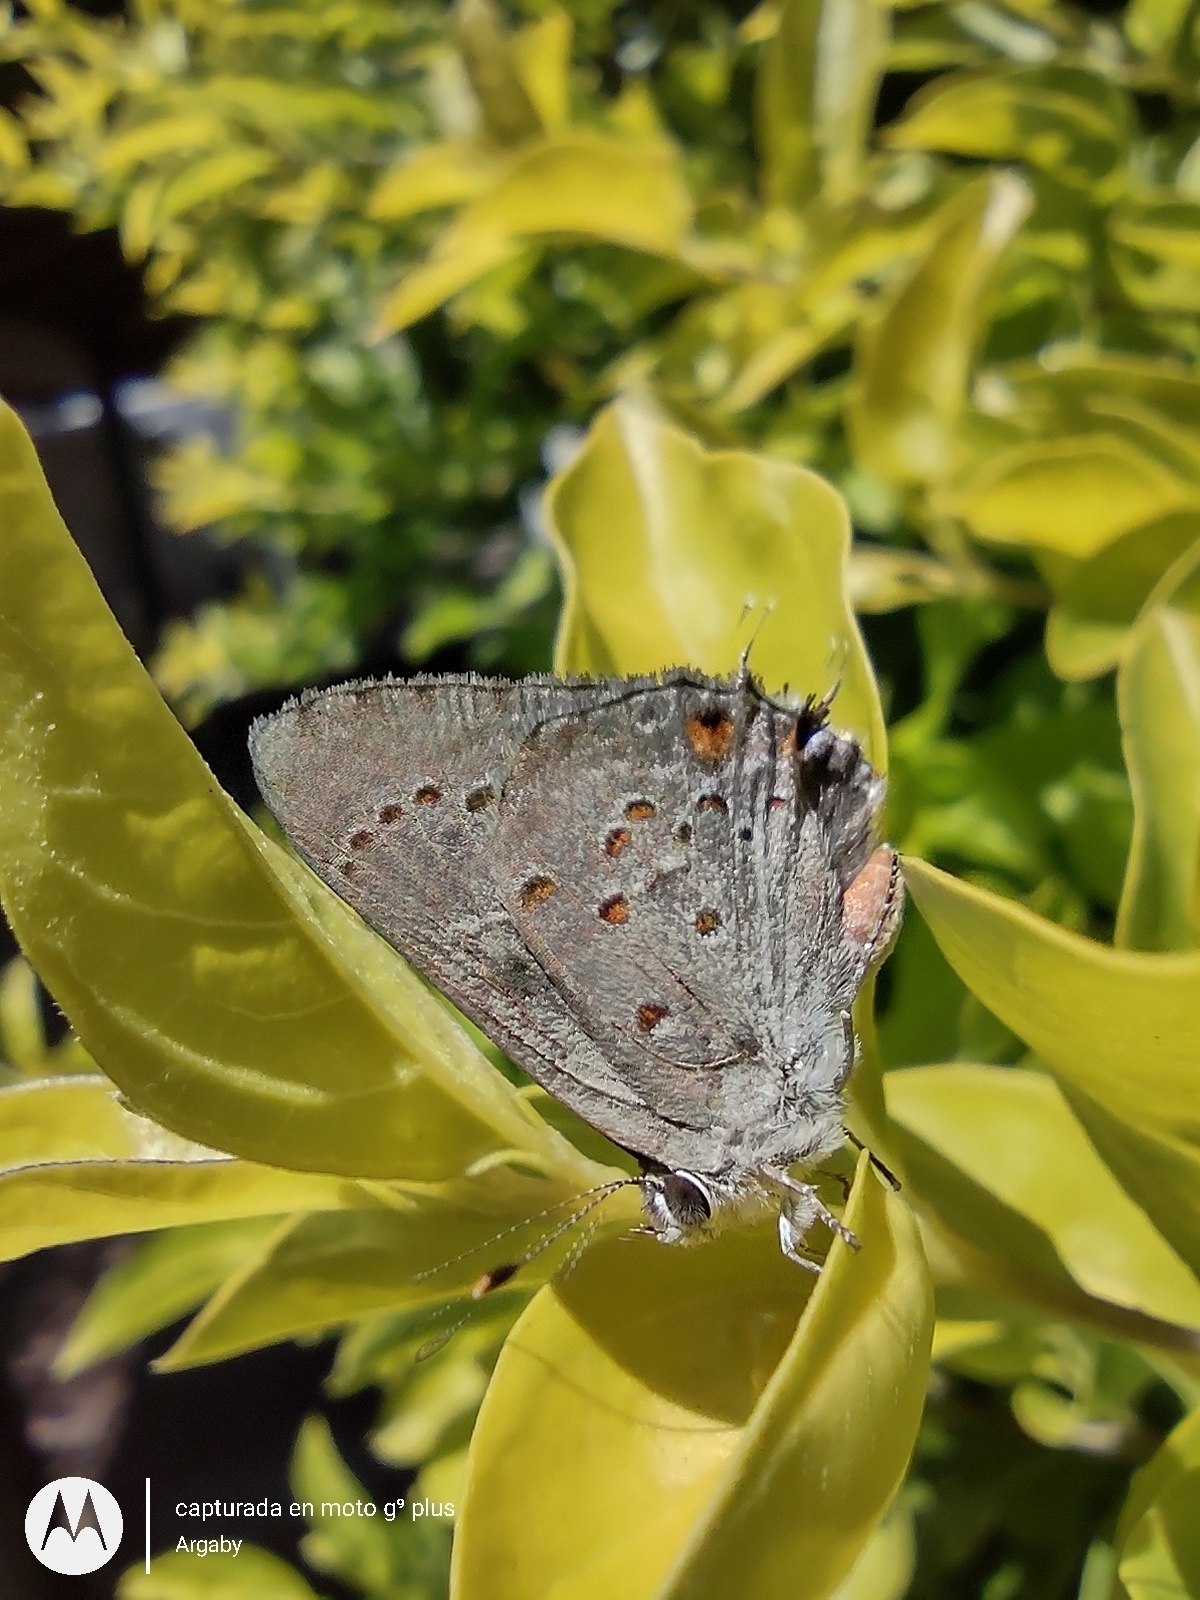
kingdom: Animalia
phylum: Arthropoda
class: Insecta
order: Lepidoptera
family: Lycaenidae
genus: Strymon
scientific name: Strymon eurytulus
